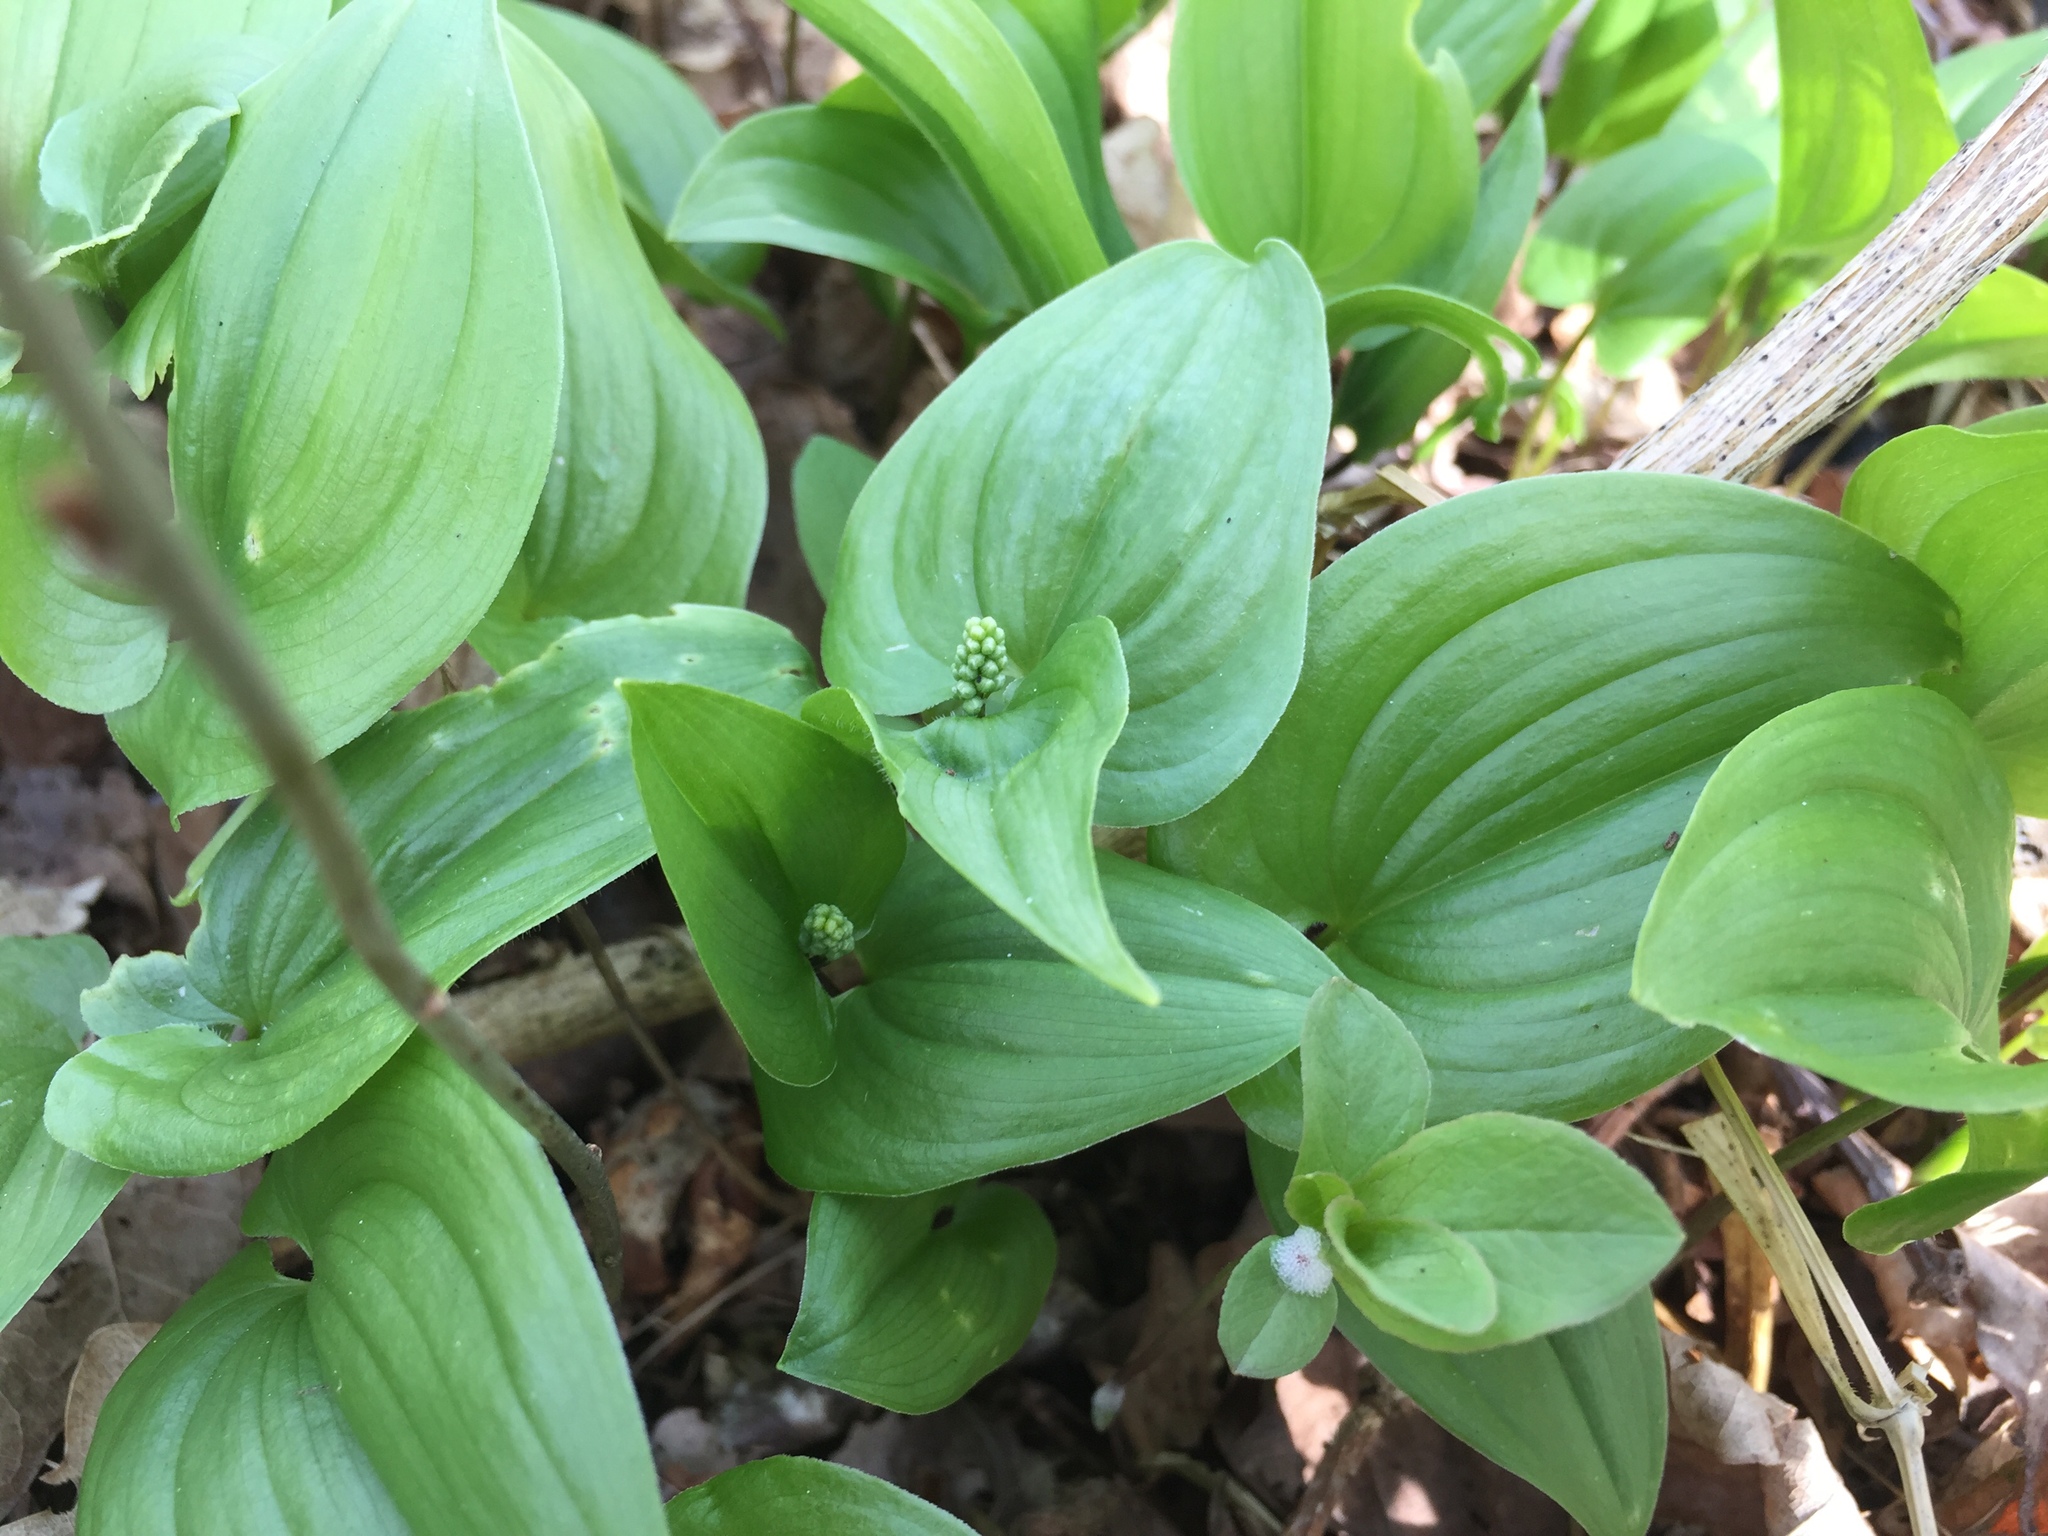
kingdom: Plantae
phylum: Tracheophyta
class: Liliopsida
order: Asparagales
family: Asparagaceae
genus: Maianthemum
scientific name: Maianthemum bifolium
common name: May lily
